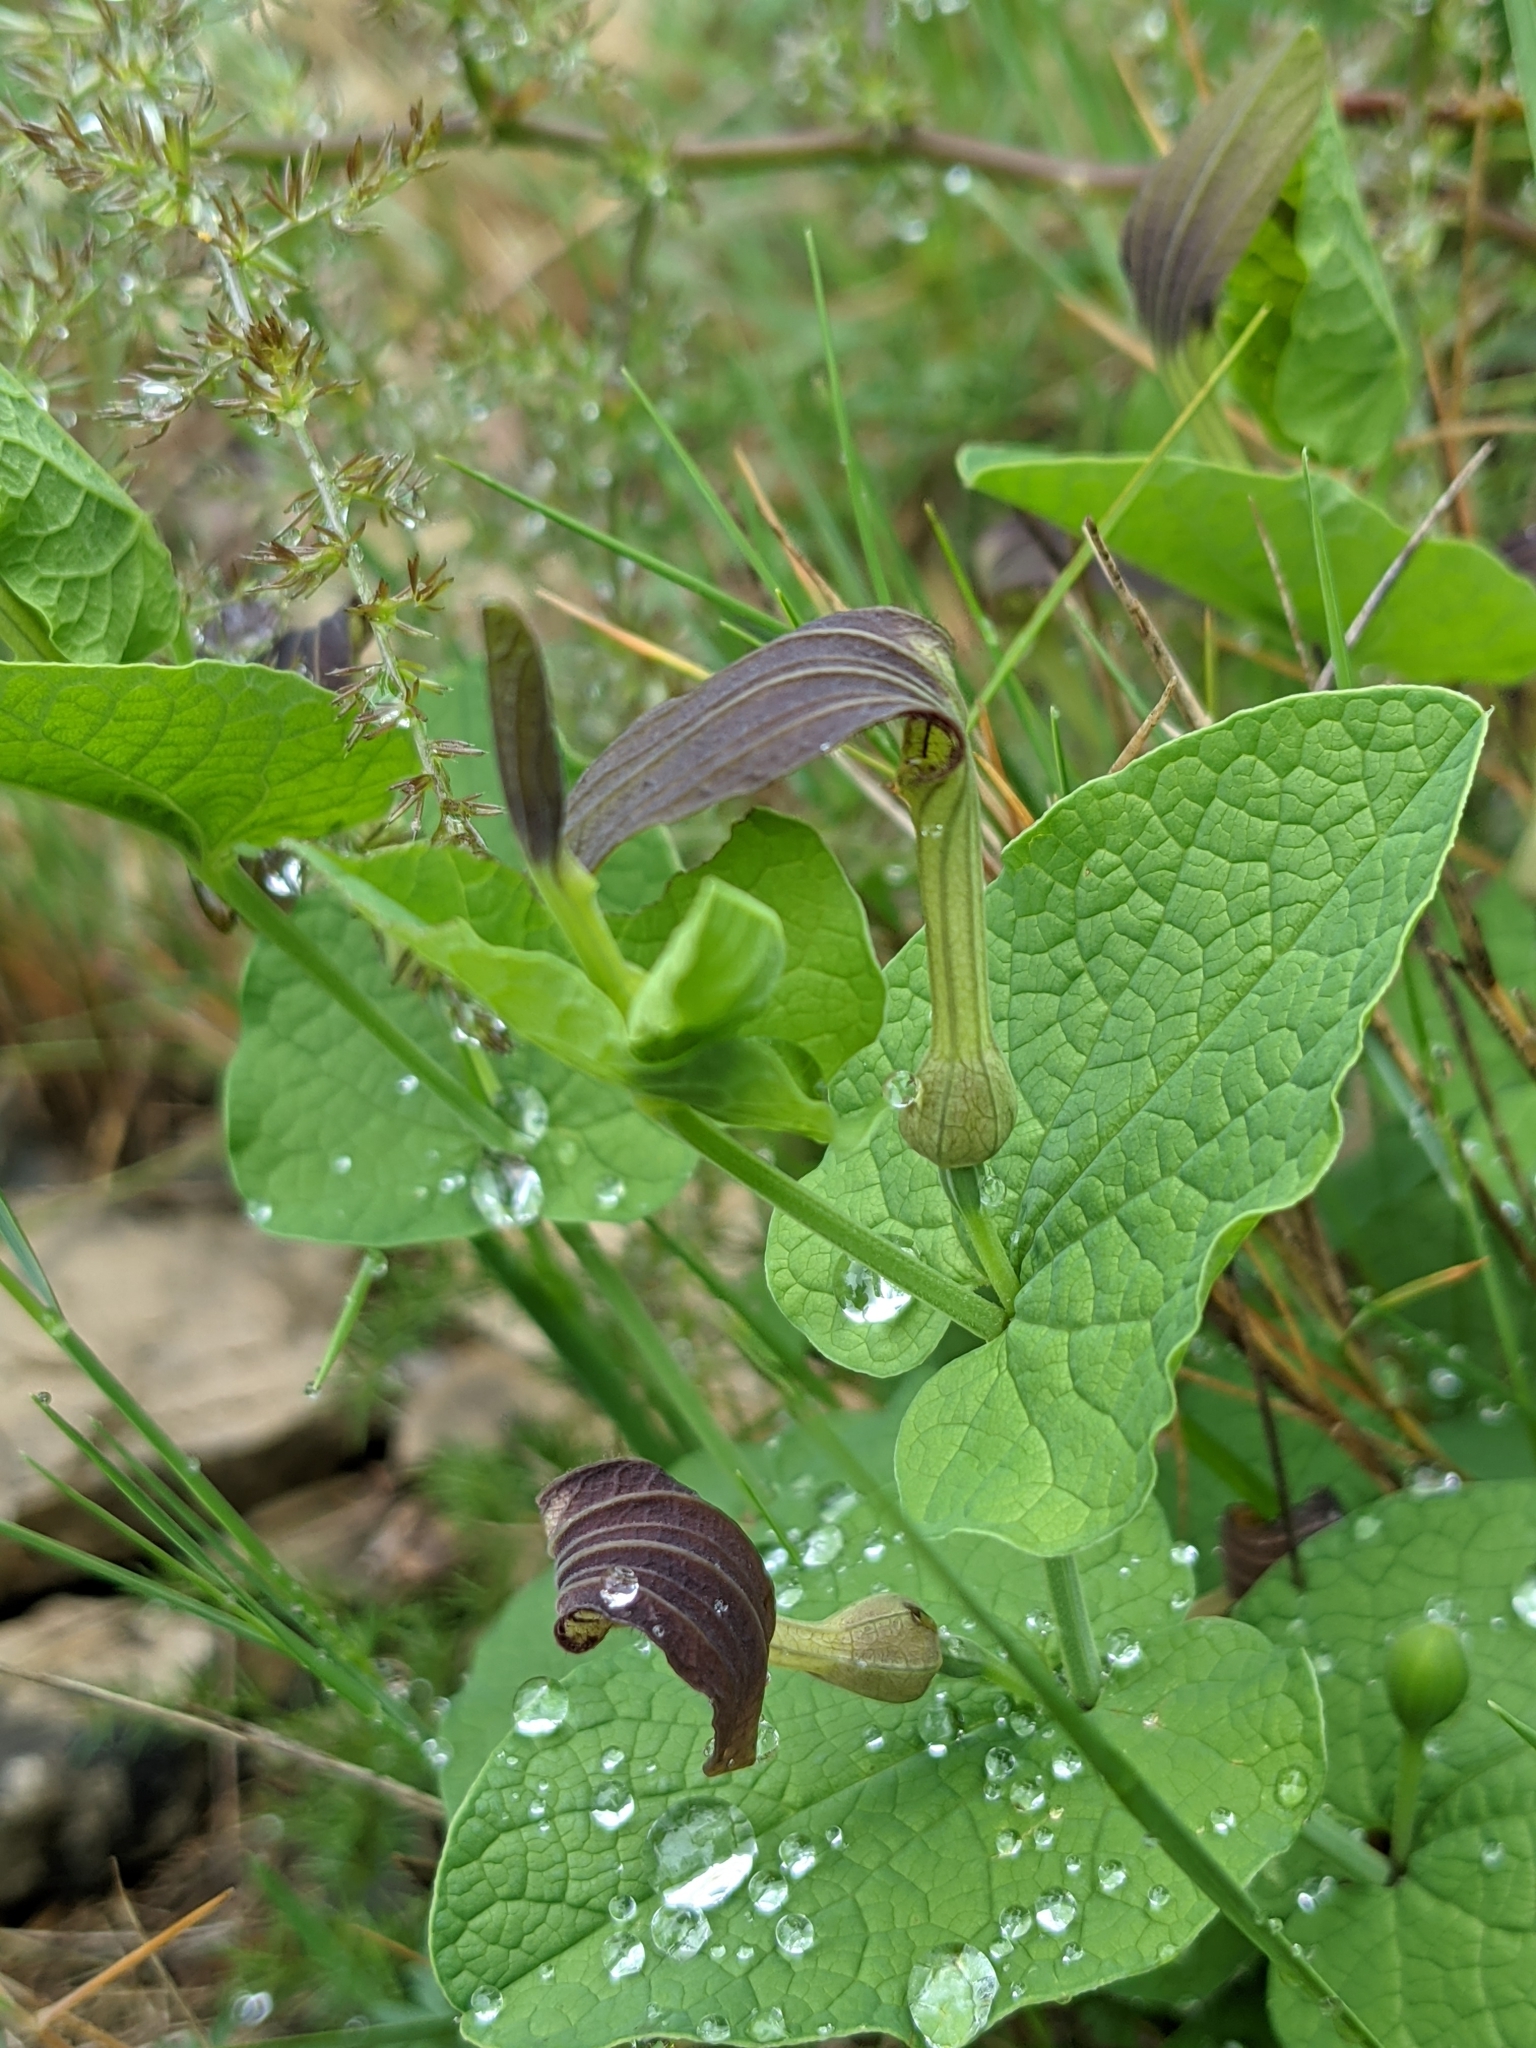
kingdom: Plantae
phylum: Tracheophyta
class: Magnoliopsida
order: Piperales
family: Aristolochiaceae
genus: Aristolochia
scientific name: Aristolochia rotunda
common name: Smearwort
